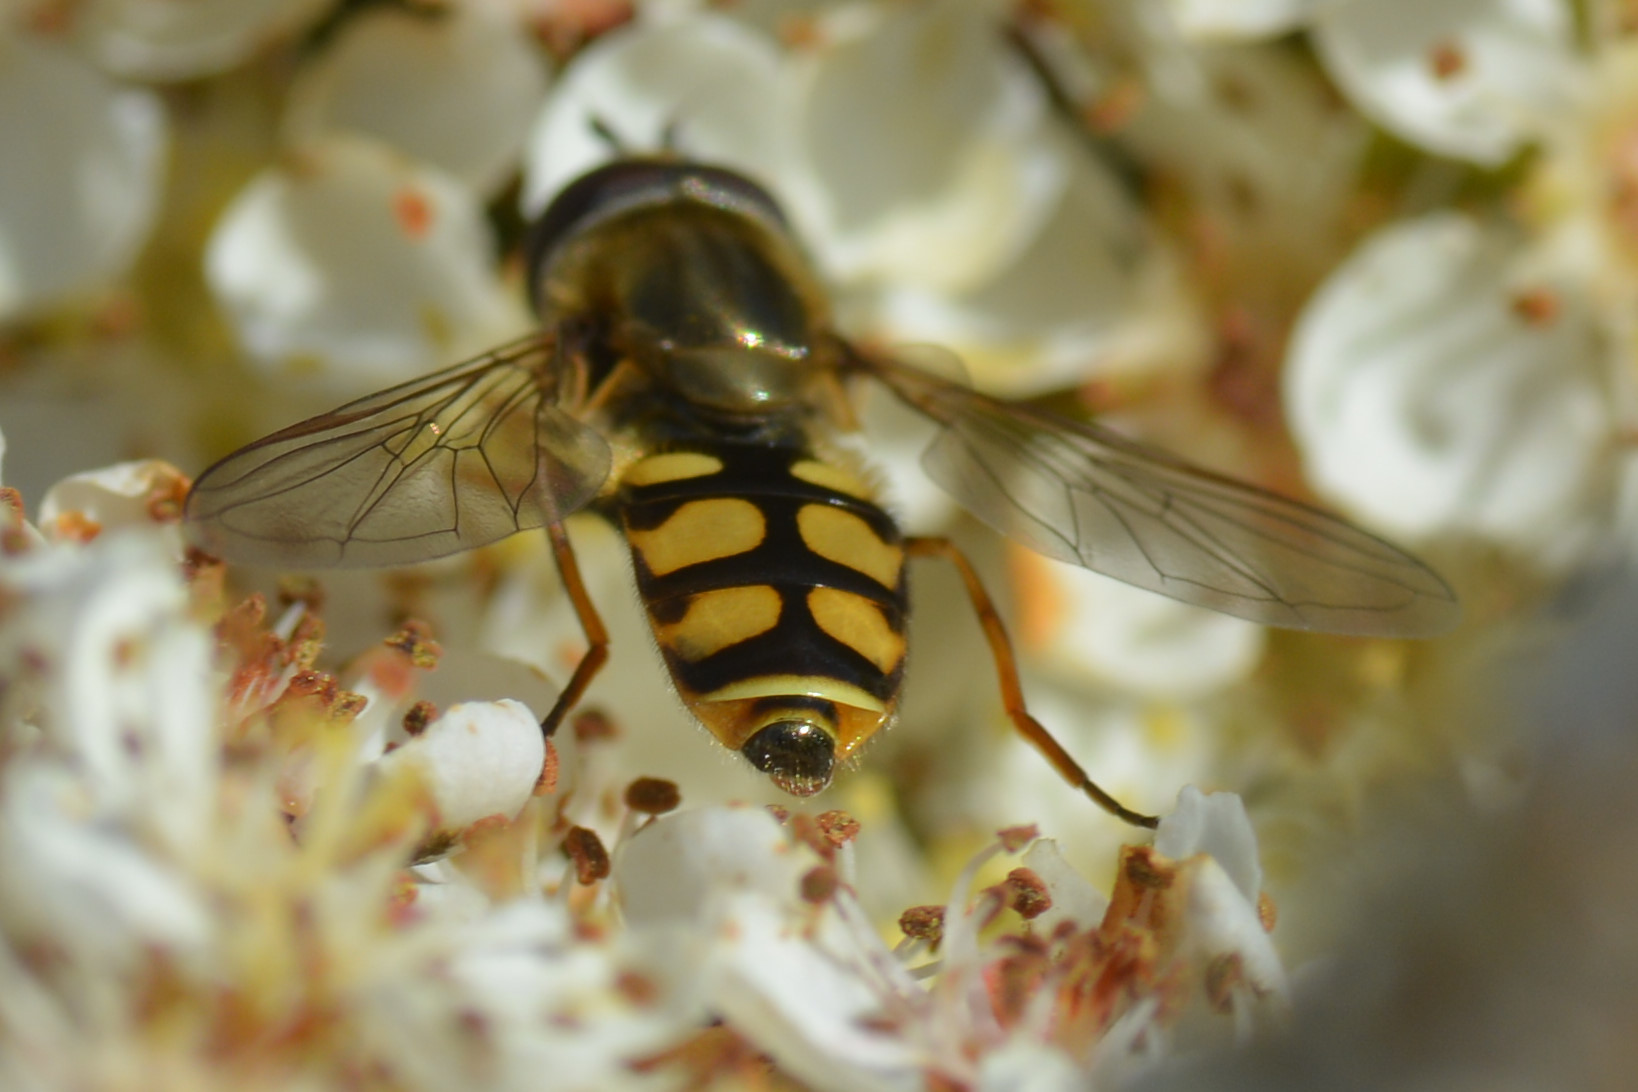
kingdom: Animalia
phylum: Arthropoda
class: Insecta
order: Diptera
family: Syrphidae
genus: Eupeodes
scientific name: Eupeodes corollae
